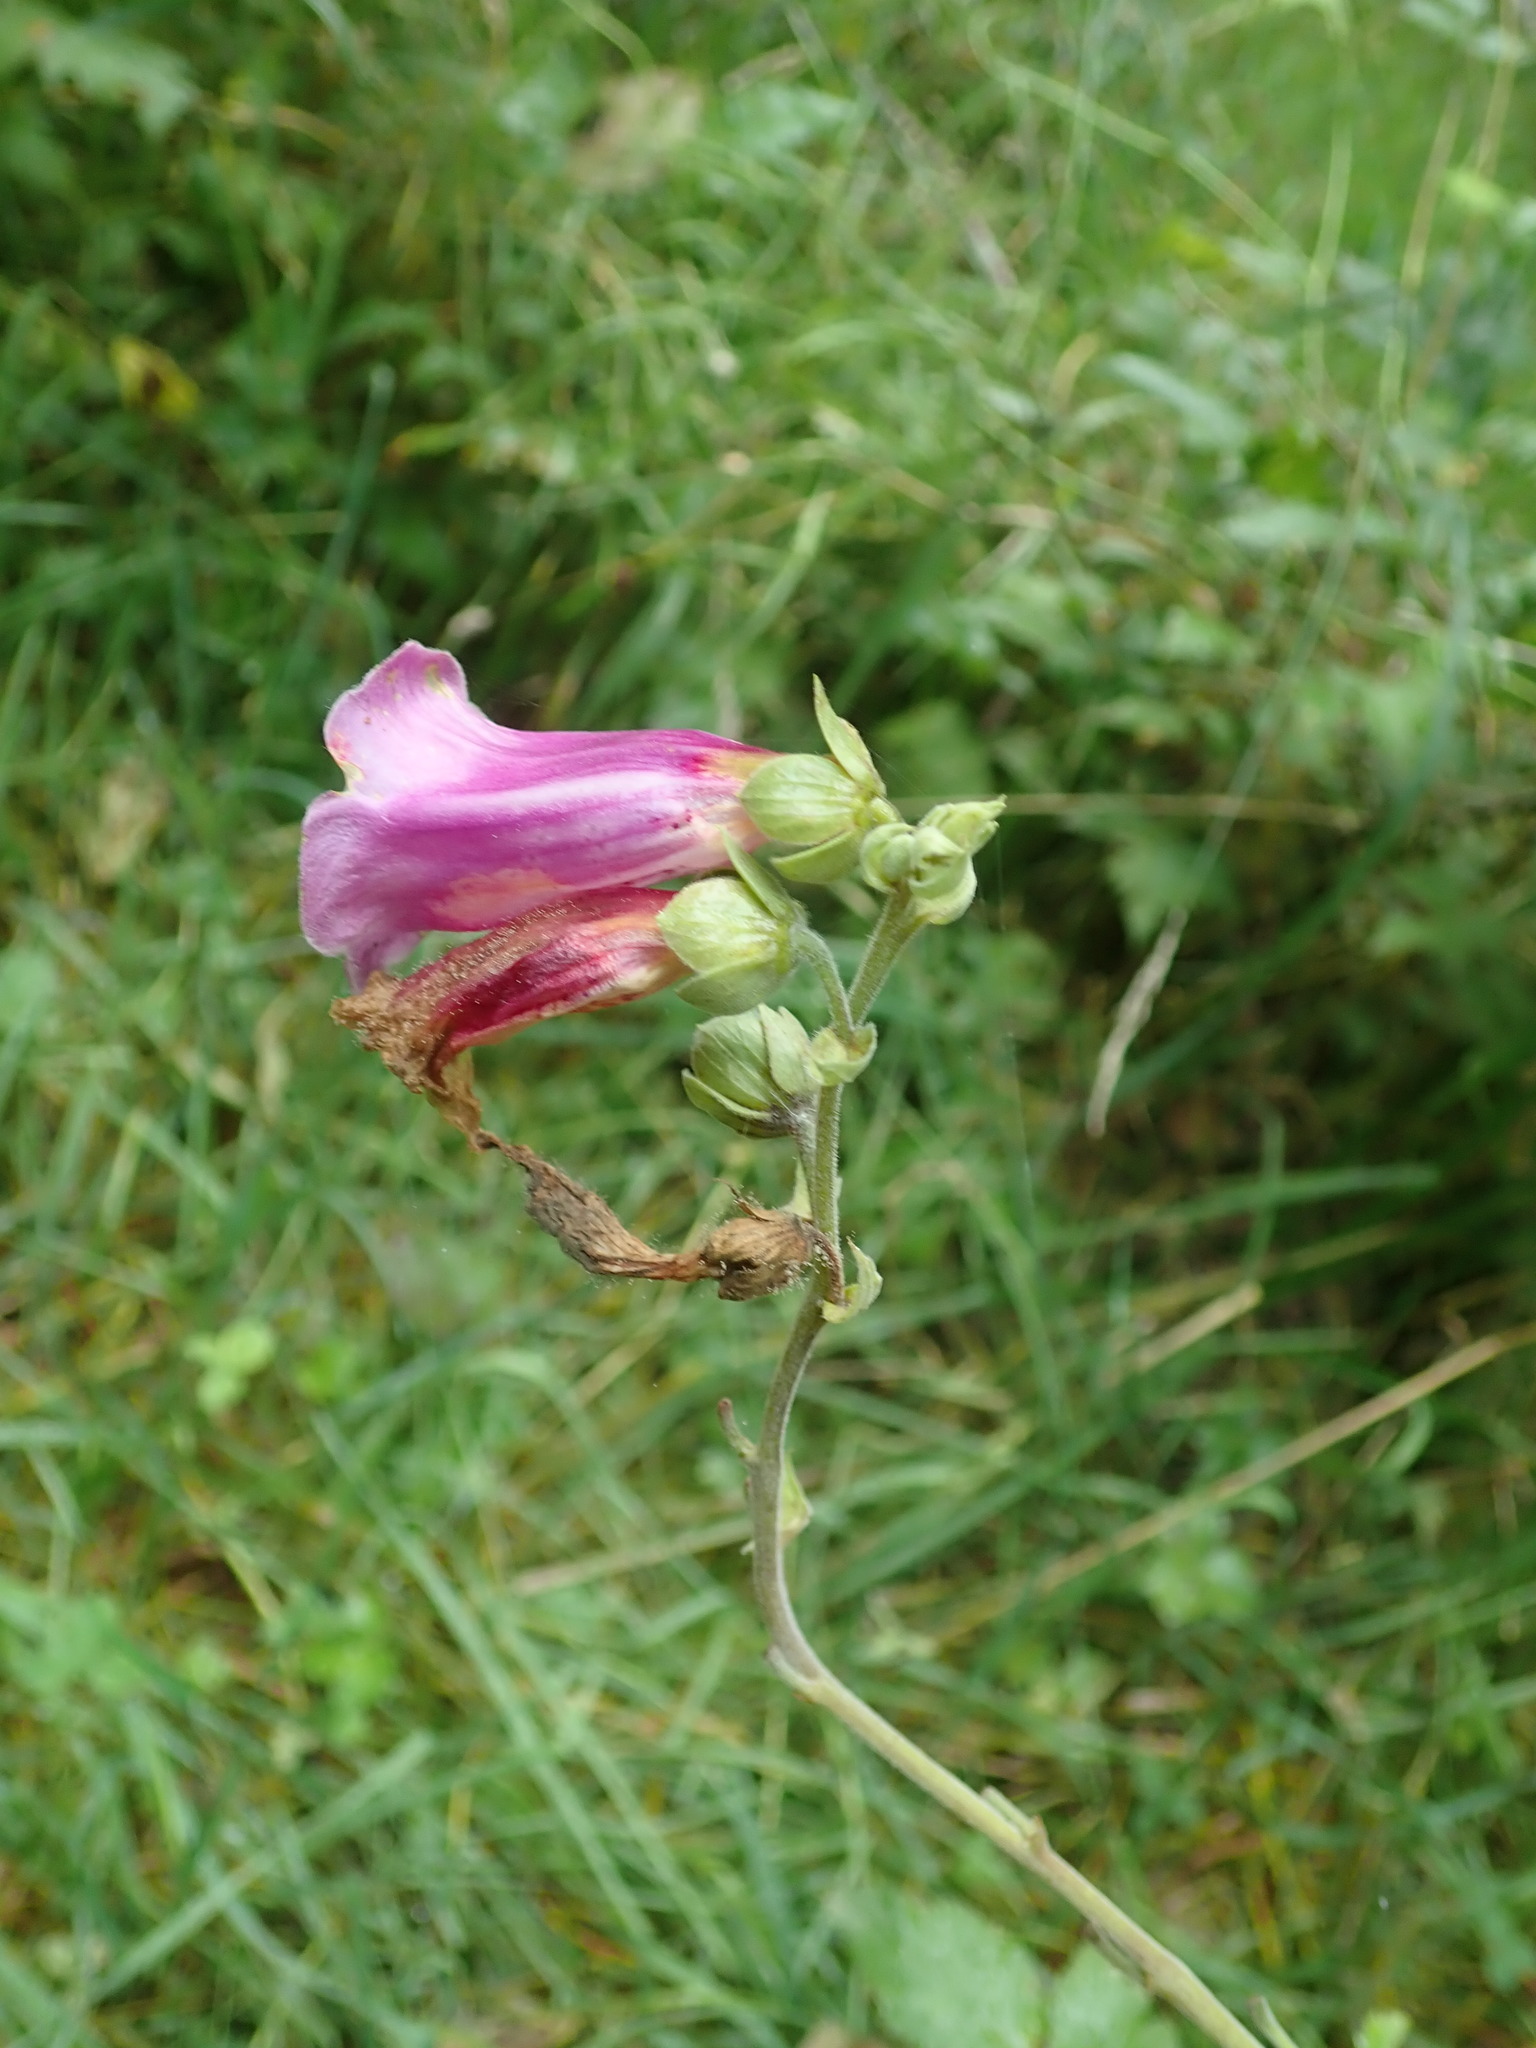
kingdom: Plantae
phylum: Tracheophyta
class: Magnoliopsida
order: Lamiales
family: Plantaginaceae
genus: Digitalis
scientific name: Digitalis purpurea
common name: Foxglove
